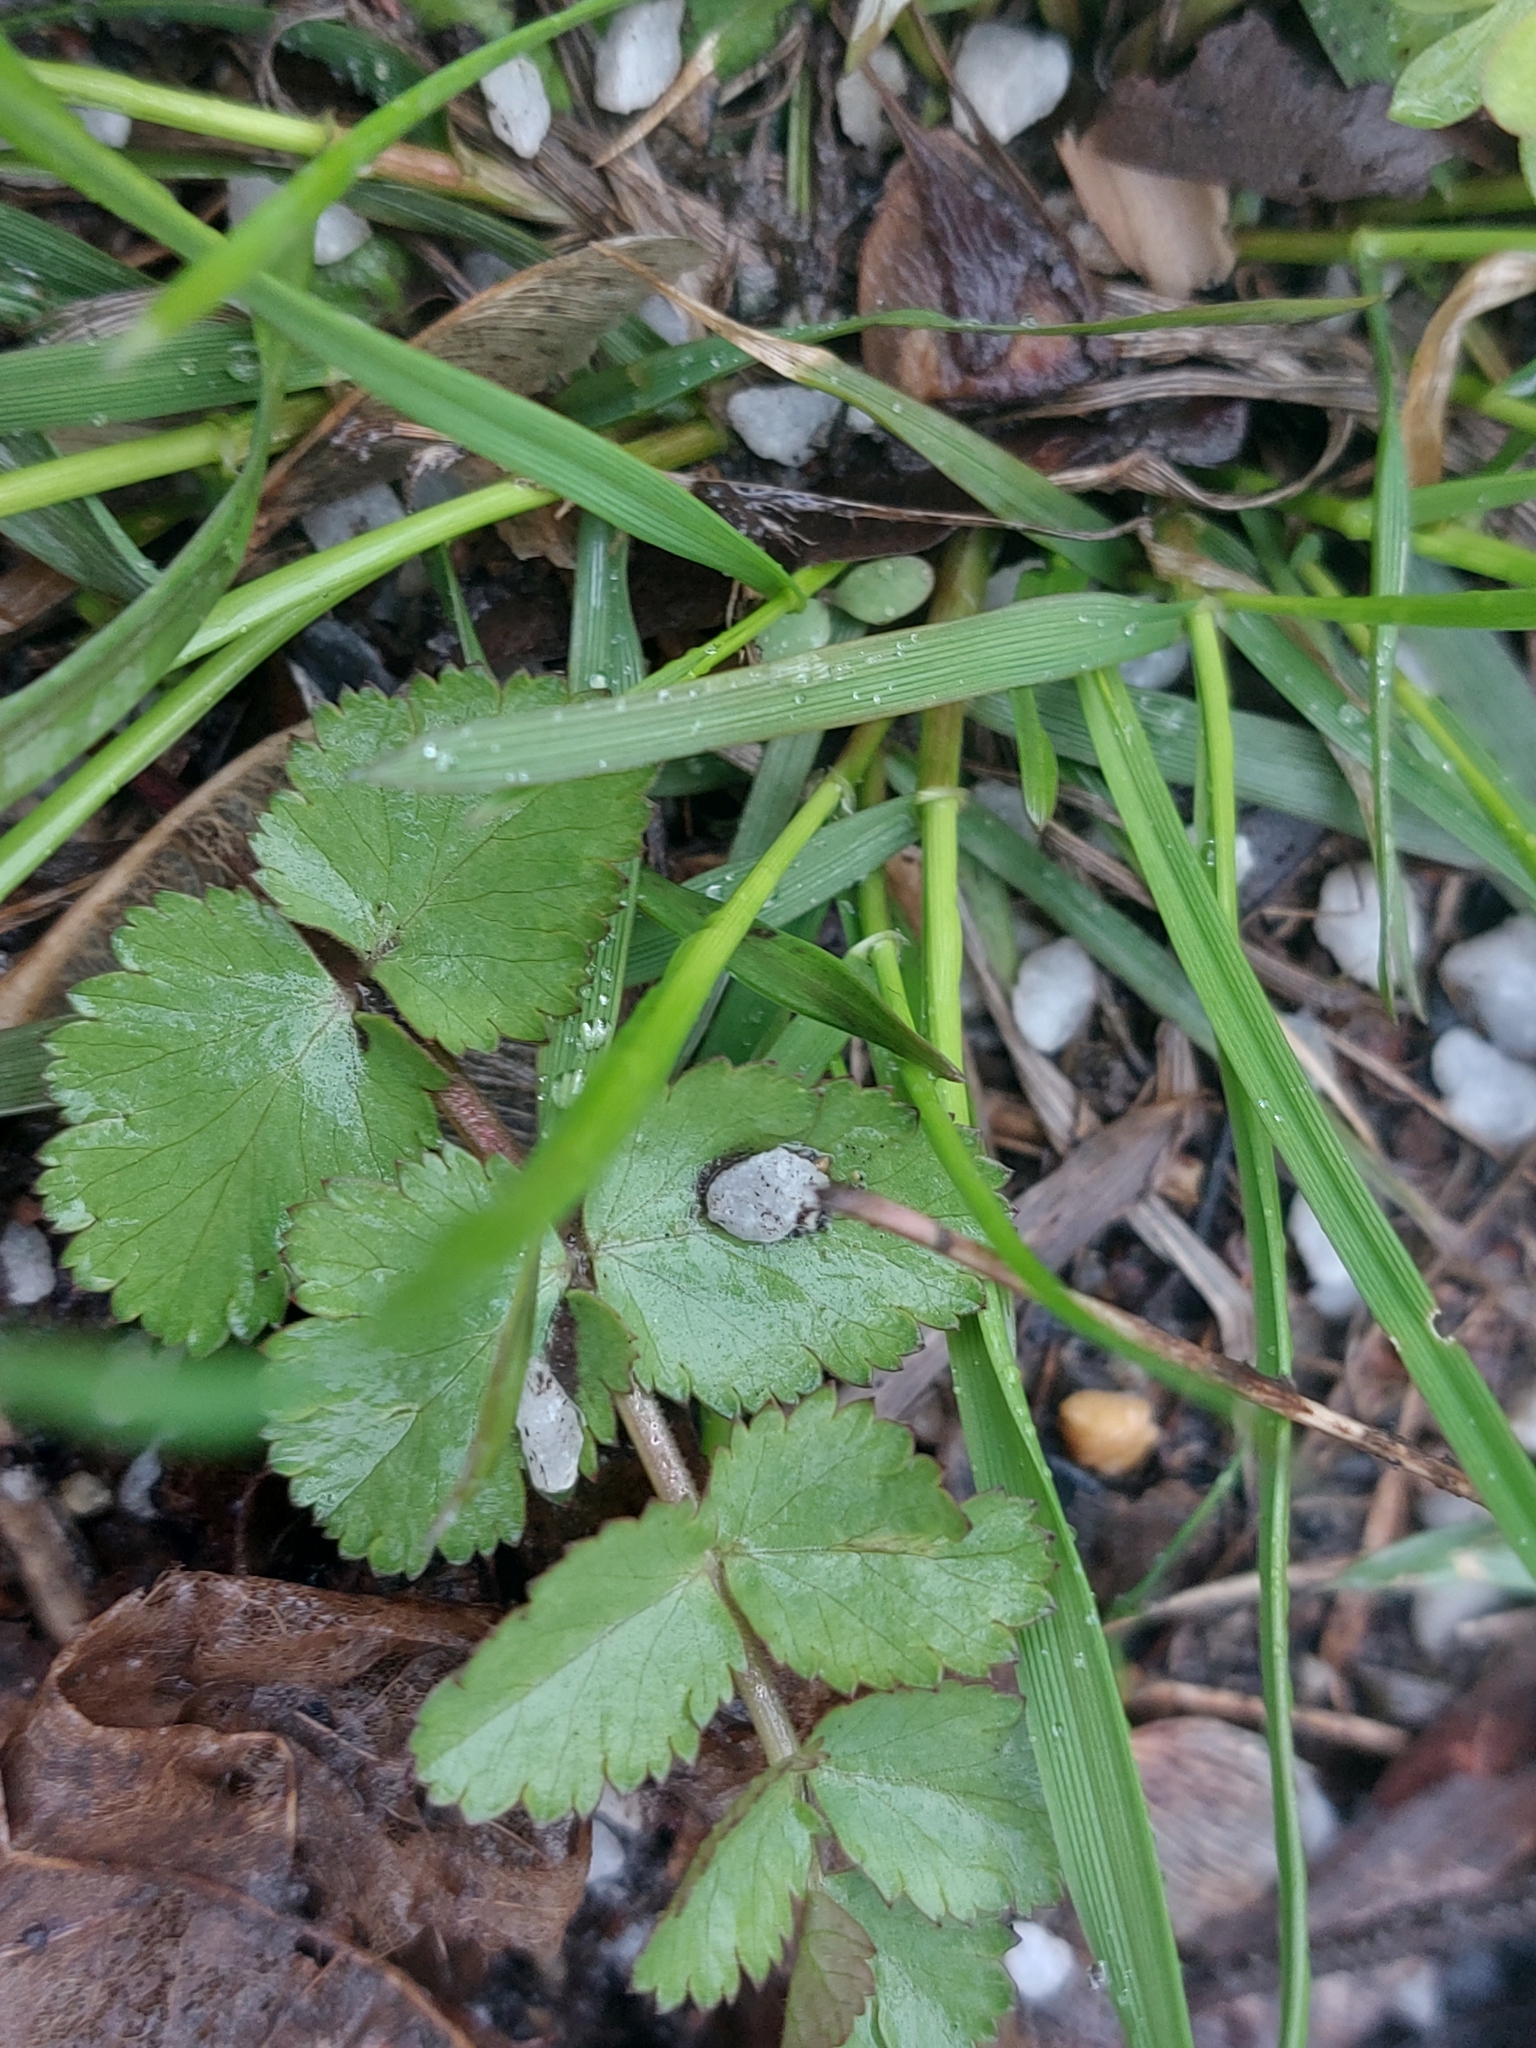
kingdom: Plantae
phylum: Tracheophyta
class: Magnoliopsida
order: Apiales
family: Apiaceae
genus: Pastinaca
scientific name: Pastinaca sativa
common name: Wild parsnip
